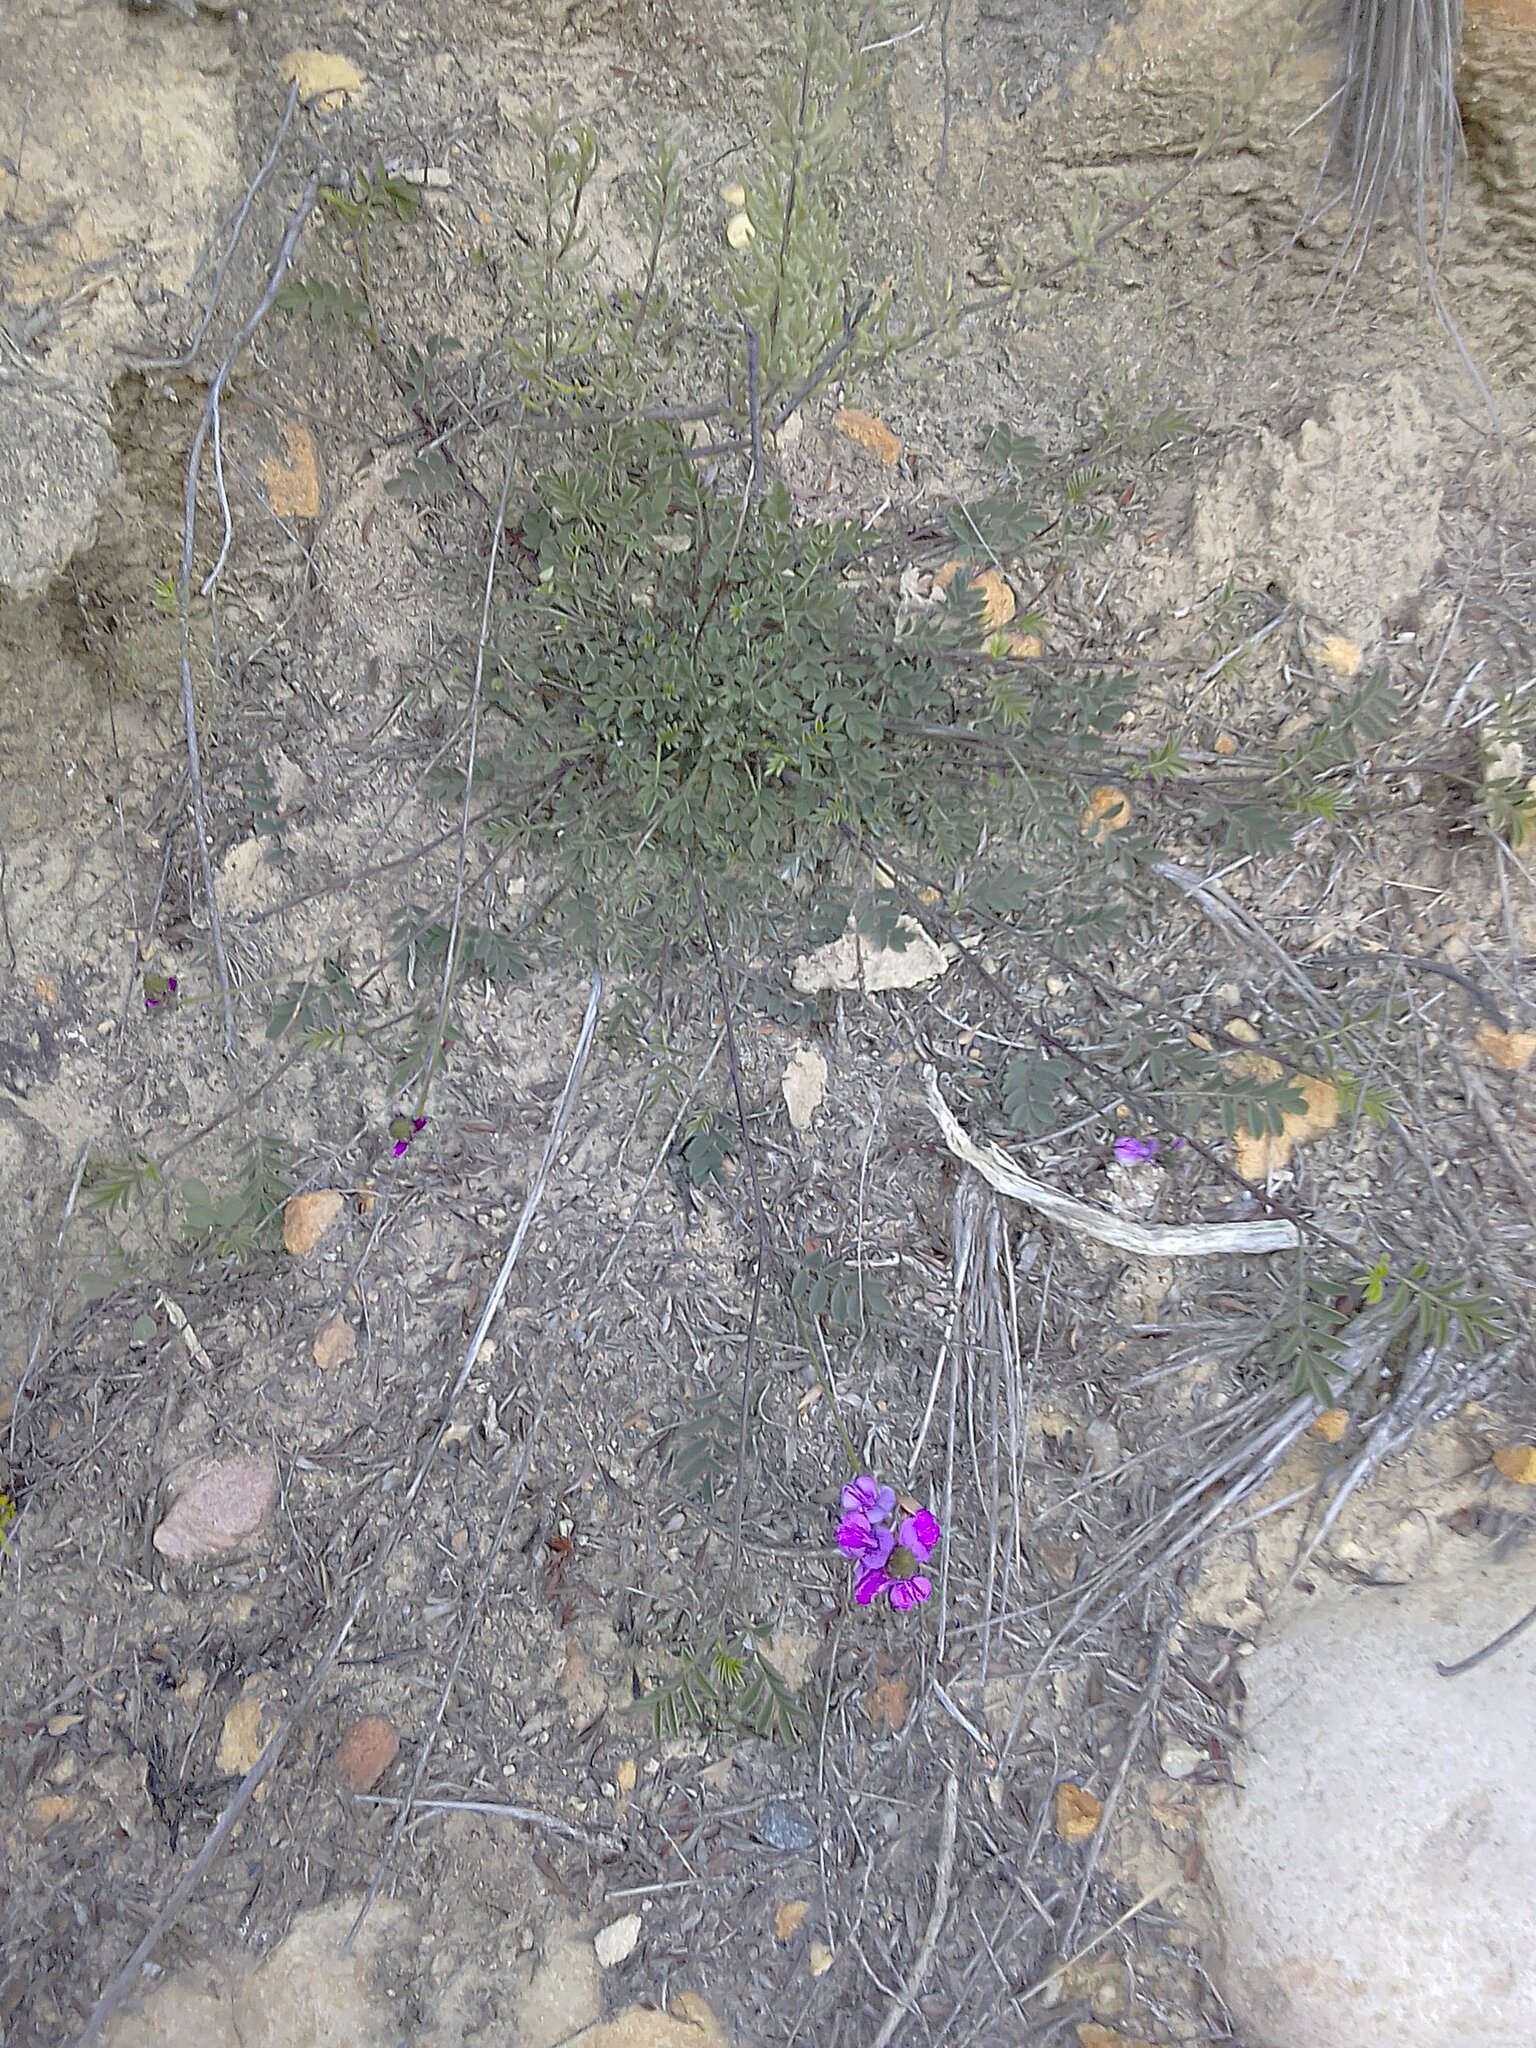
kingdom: Plantae
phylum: Tracheophyta
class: Magnoliopsida
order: Fabales
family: Fabaceae
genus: Indigofera
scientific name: Indigofera capillaris
